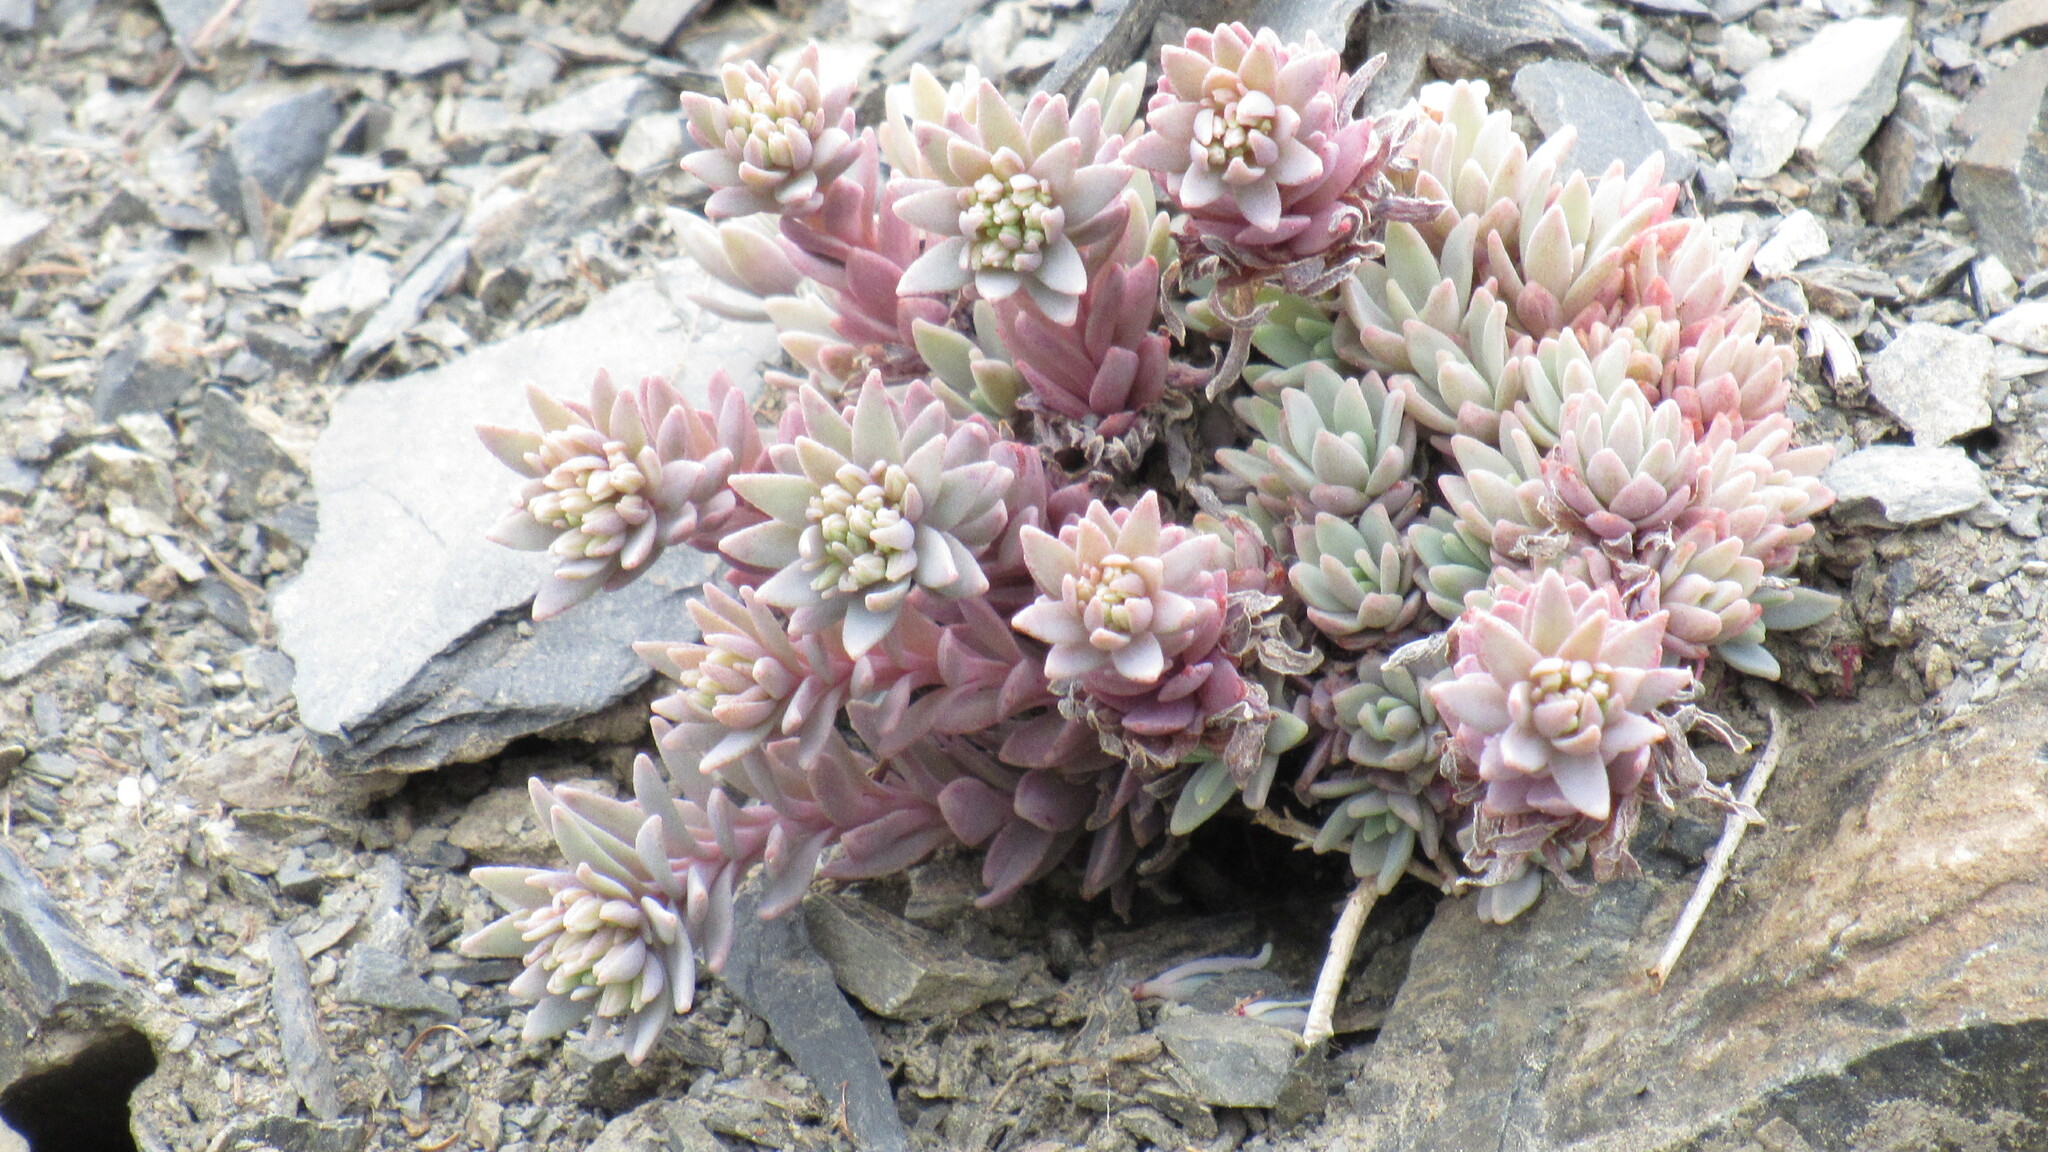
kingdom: Plantae
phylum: Tracheophyta
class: Magnoliopsida
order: Saxifragales
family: Crassulaceae
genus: Hylotelephium
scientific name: Hylotelephium cyaneum
